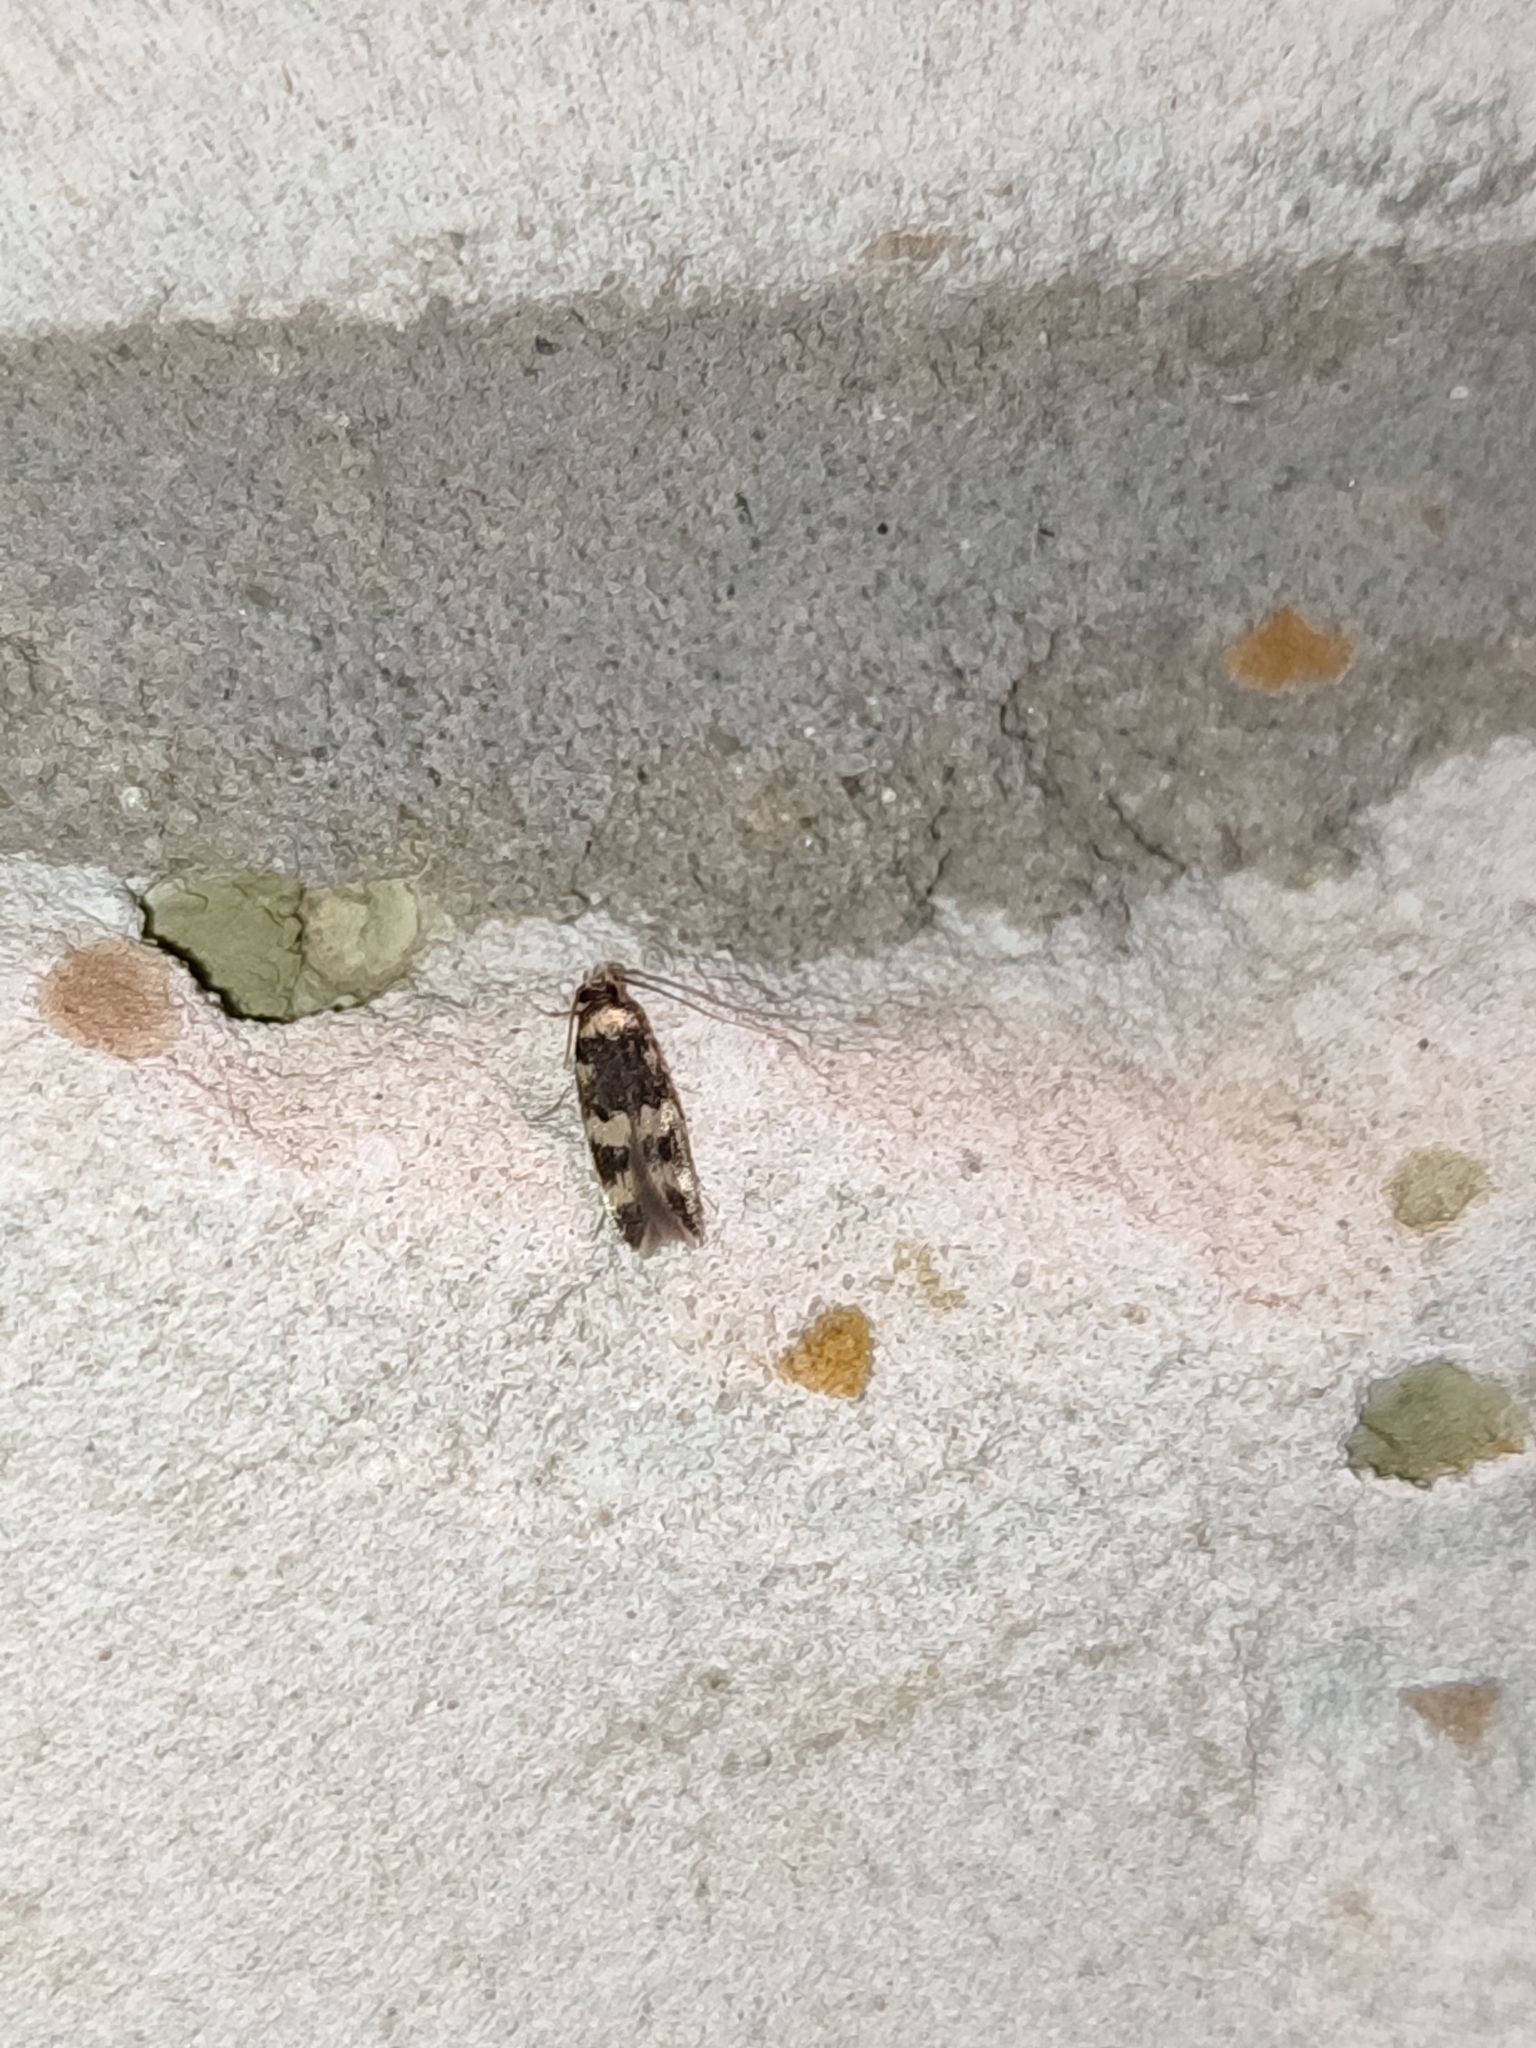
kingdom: Animalia
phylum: Arthropoda
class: Insecta
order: Lepidoptera
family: Autostichidae
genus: Oegoconia
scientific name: Oegoconia quadripuncta
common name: Four-spotted obscure
